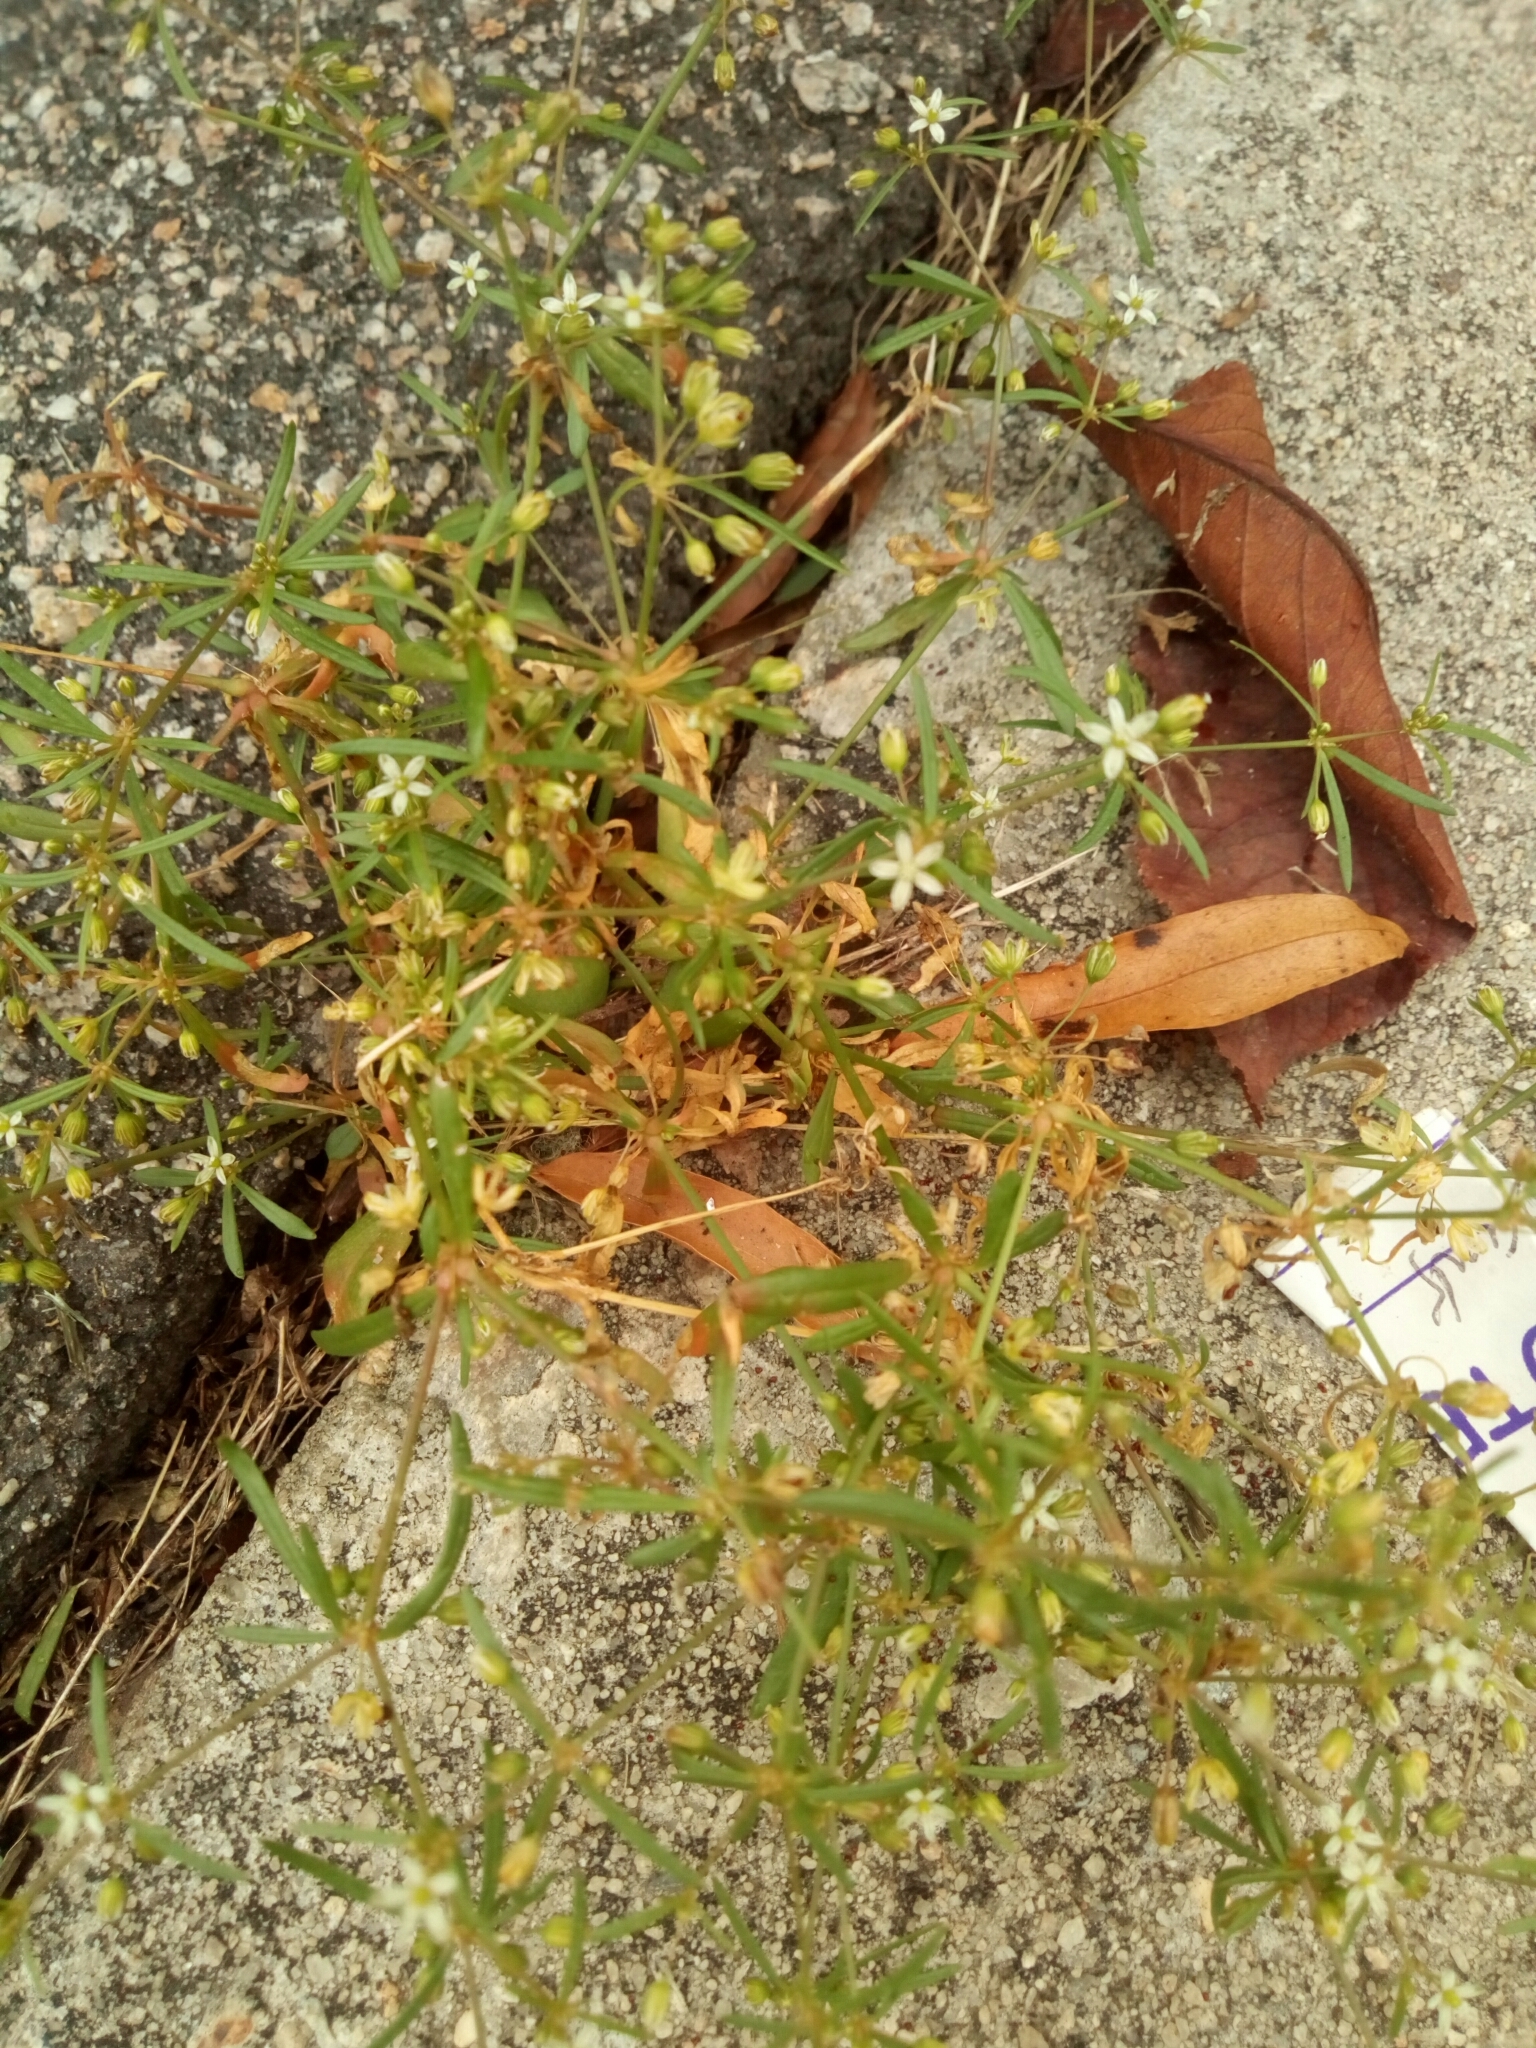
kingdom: Plantae
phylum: Tracheophyta
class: Magnoliopsida
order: Caryophyllales
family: Molluginaceae
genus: Mollugo
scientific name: Mollugo verticillata
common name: Green carpetweed
